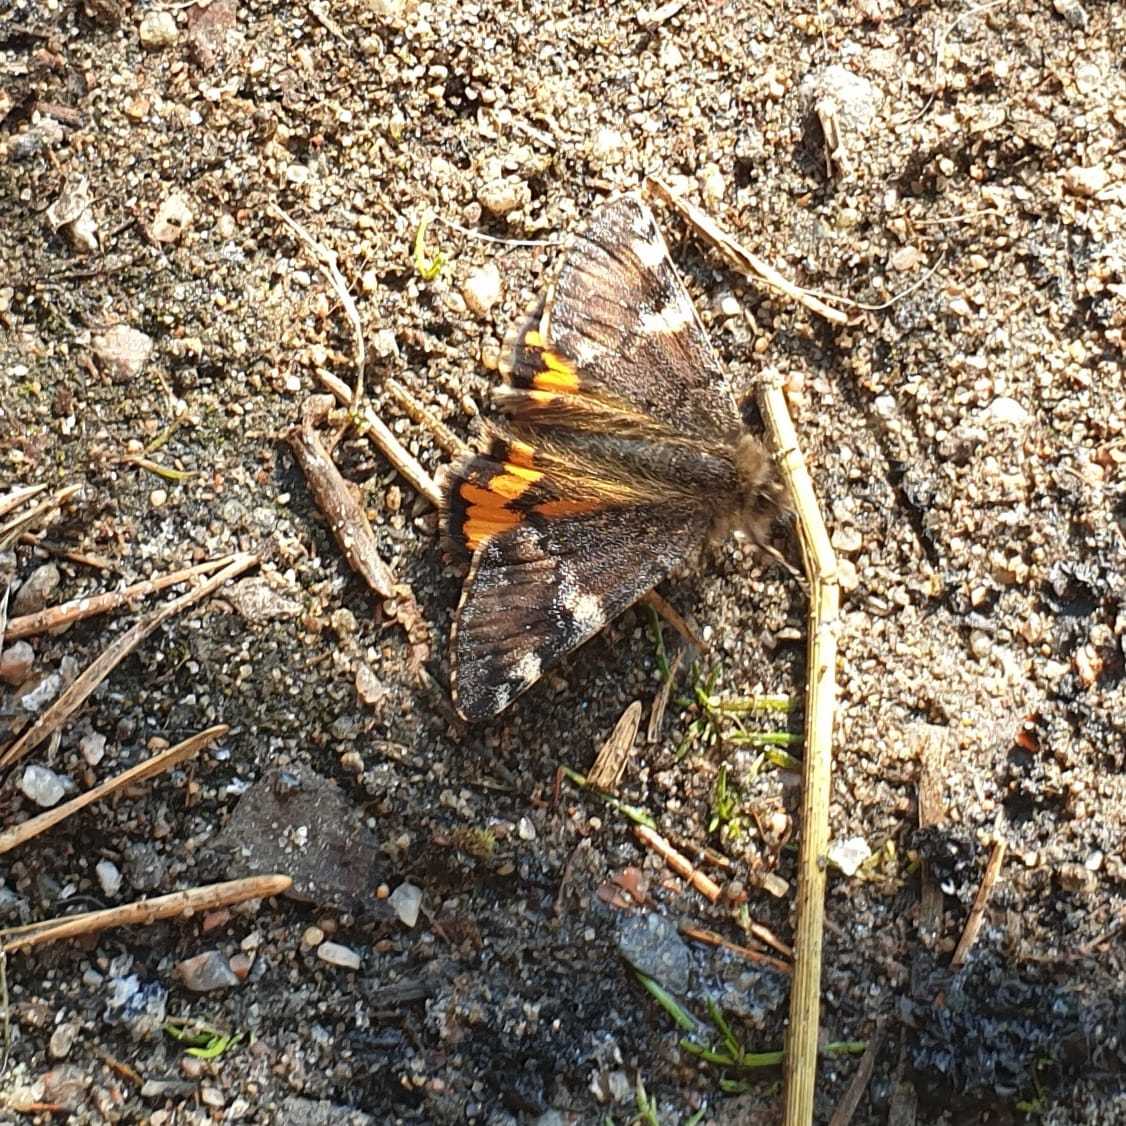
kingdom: Animalia
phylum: Arthropoda
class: Insecta
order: Lepidoptera
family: Geometridae
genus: Archiearis
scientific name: Archiearis parthenias
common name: Orange underwing
